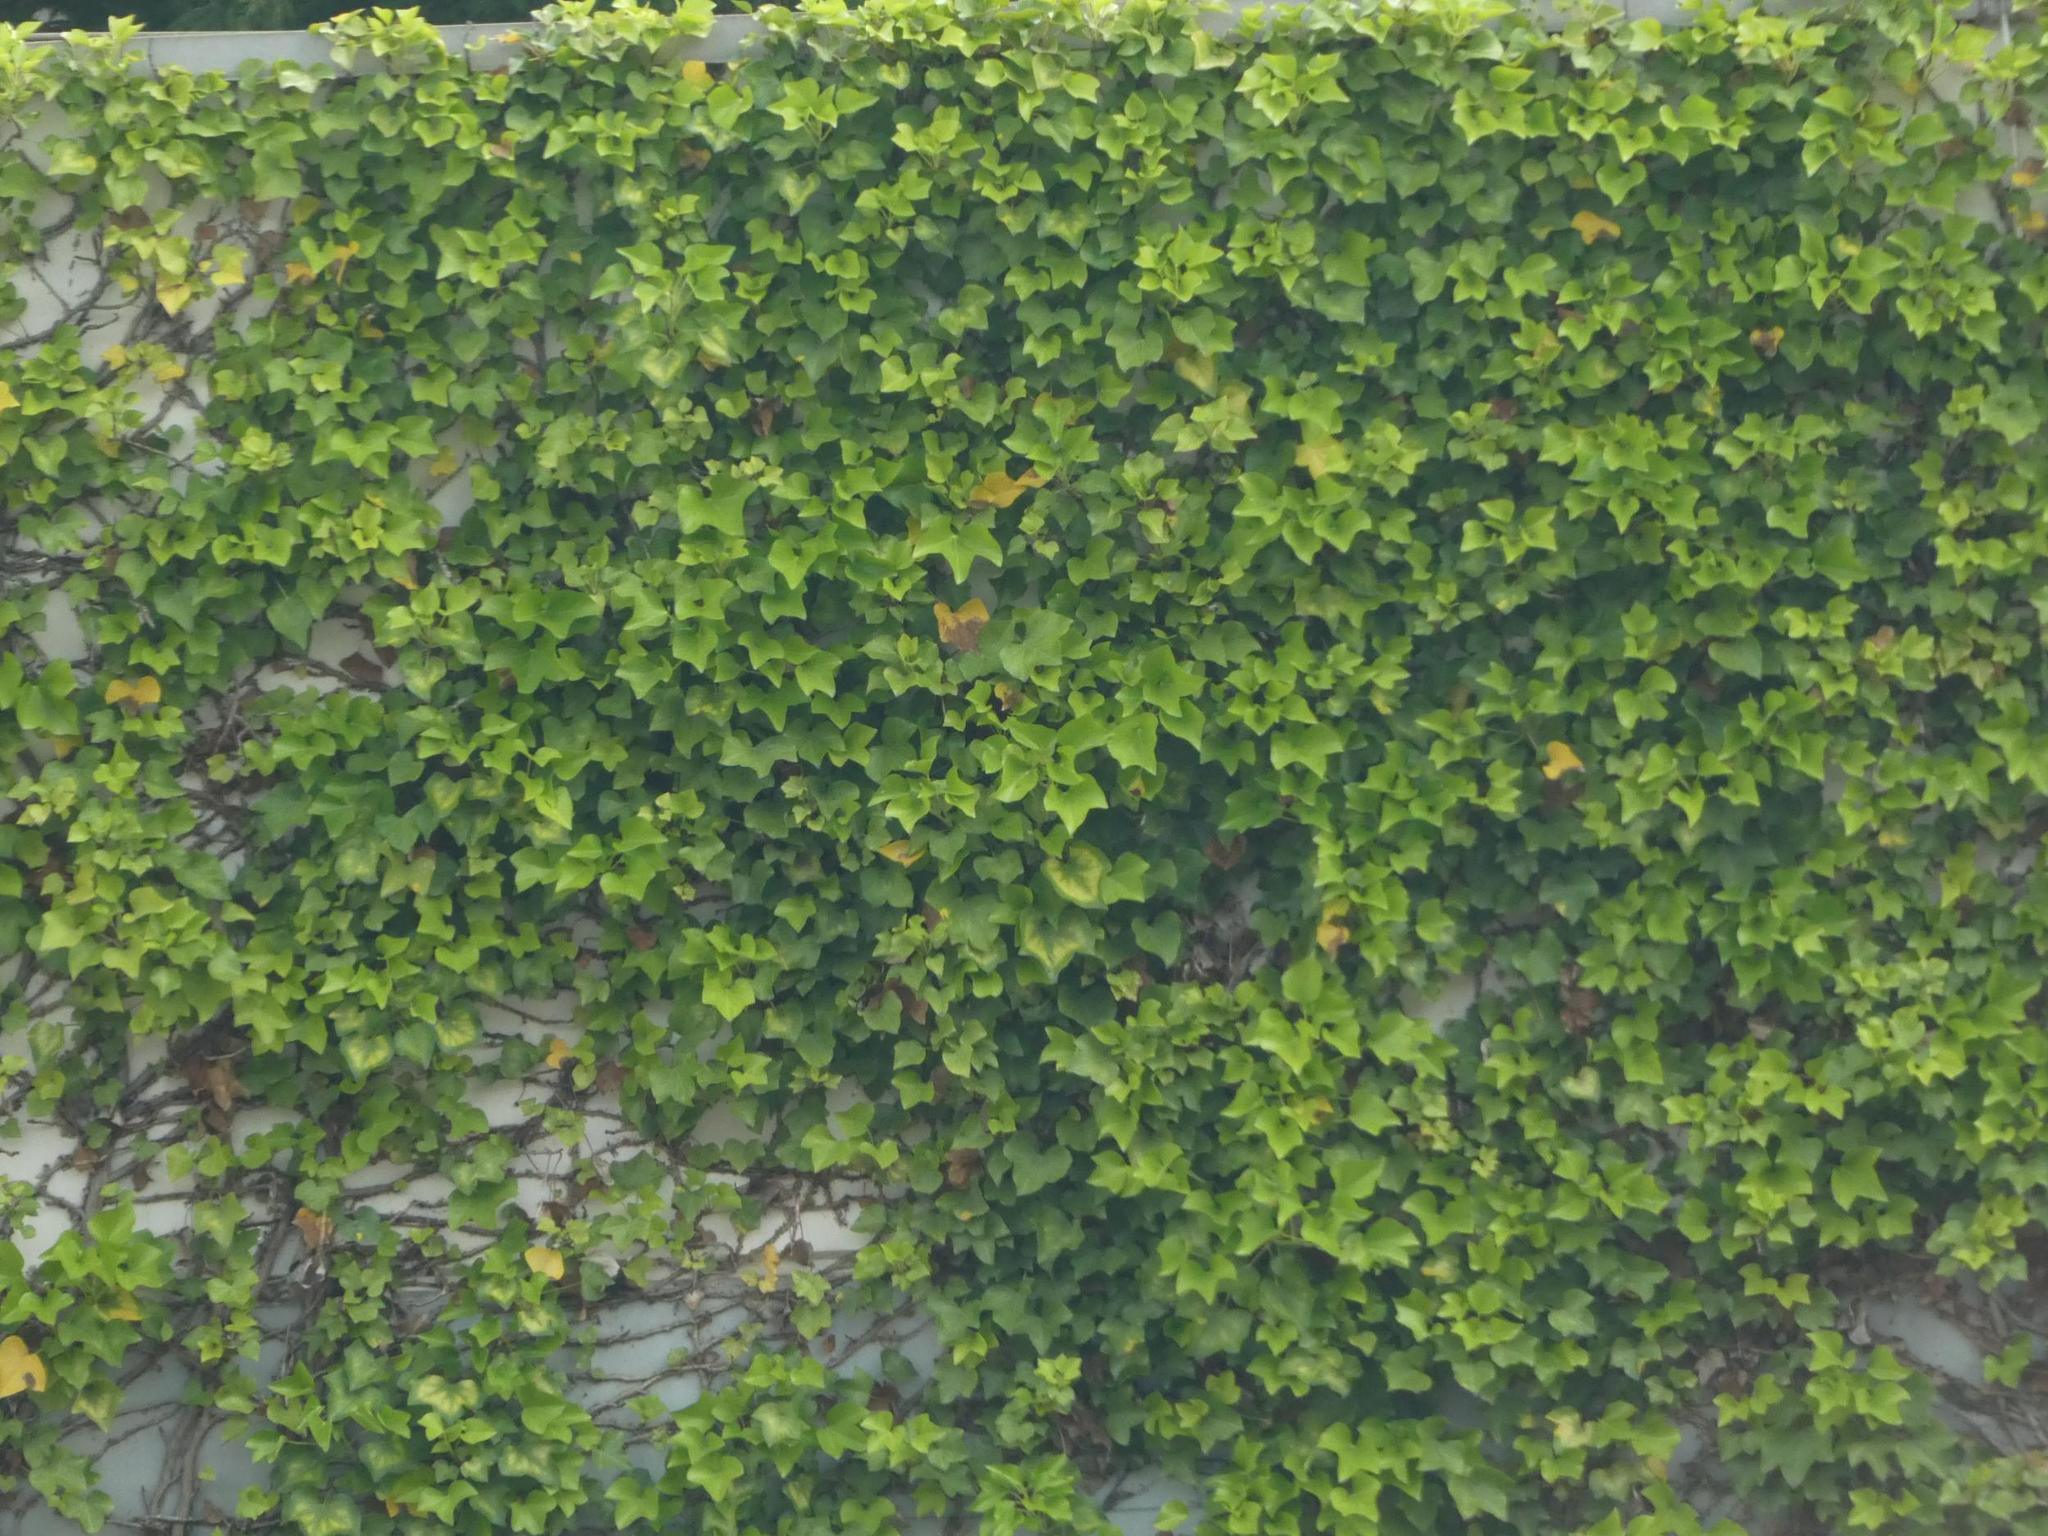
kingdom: Plantae
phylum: Tracheophyta
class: Magnoliopsida
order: Apiales
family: Araliaceae
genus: Hedera
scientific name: Hedera helix
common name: Ivy
